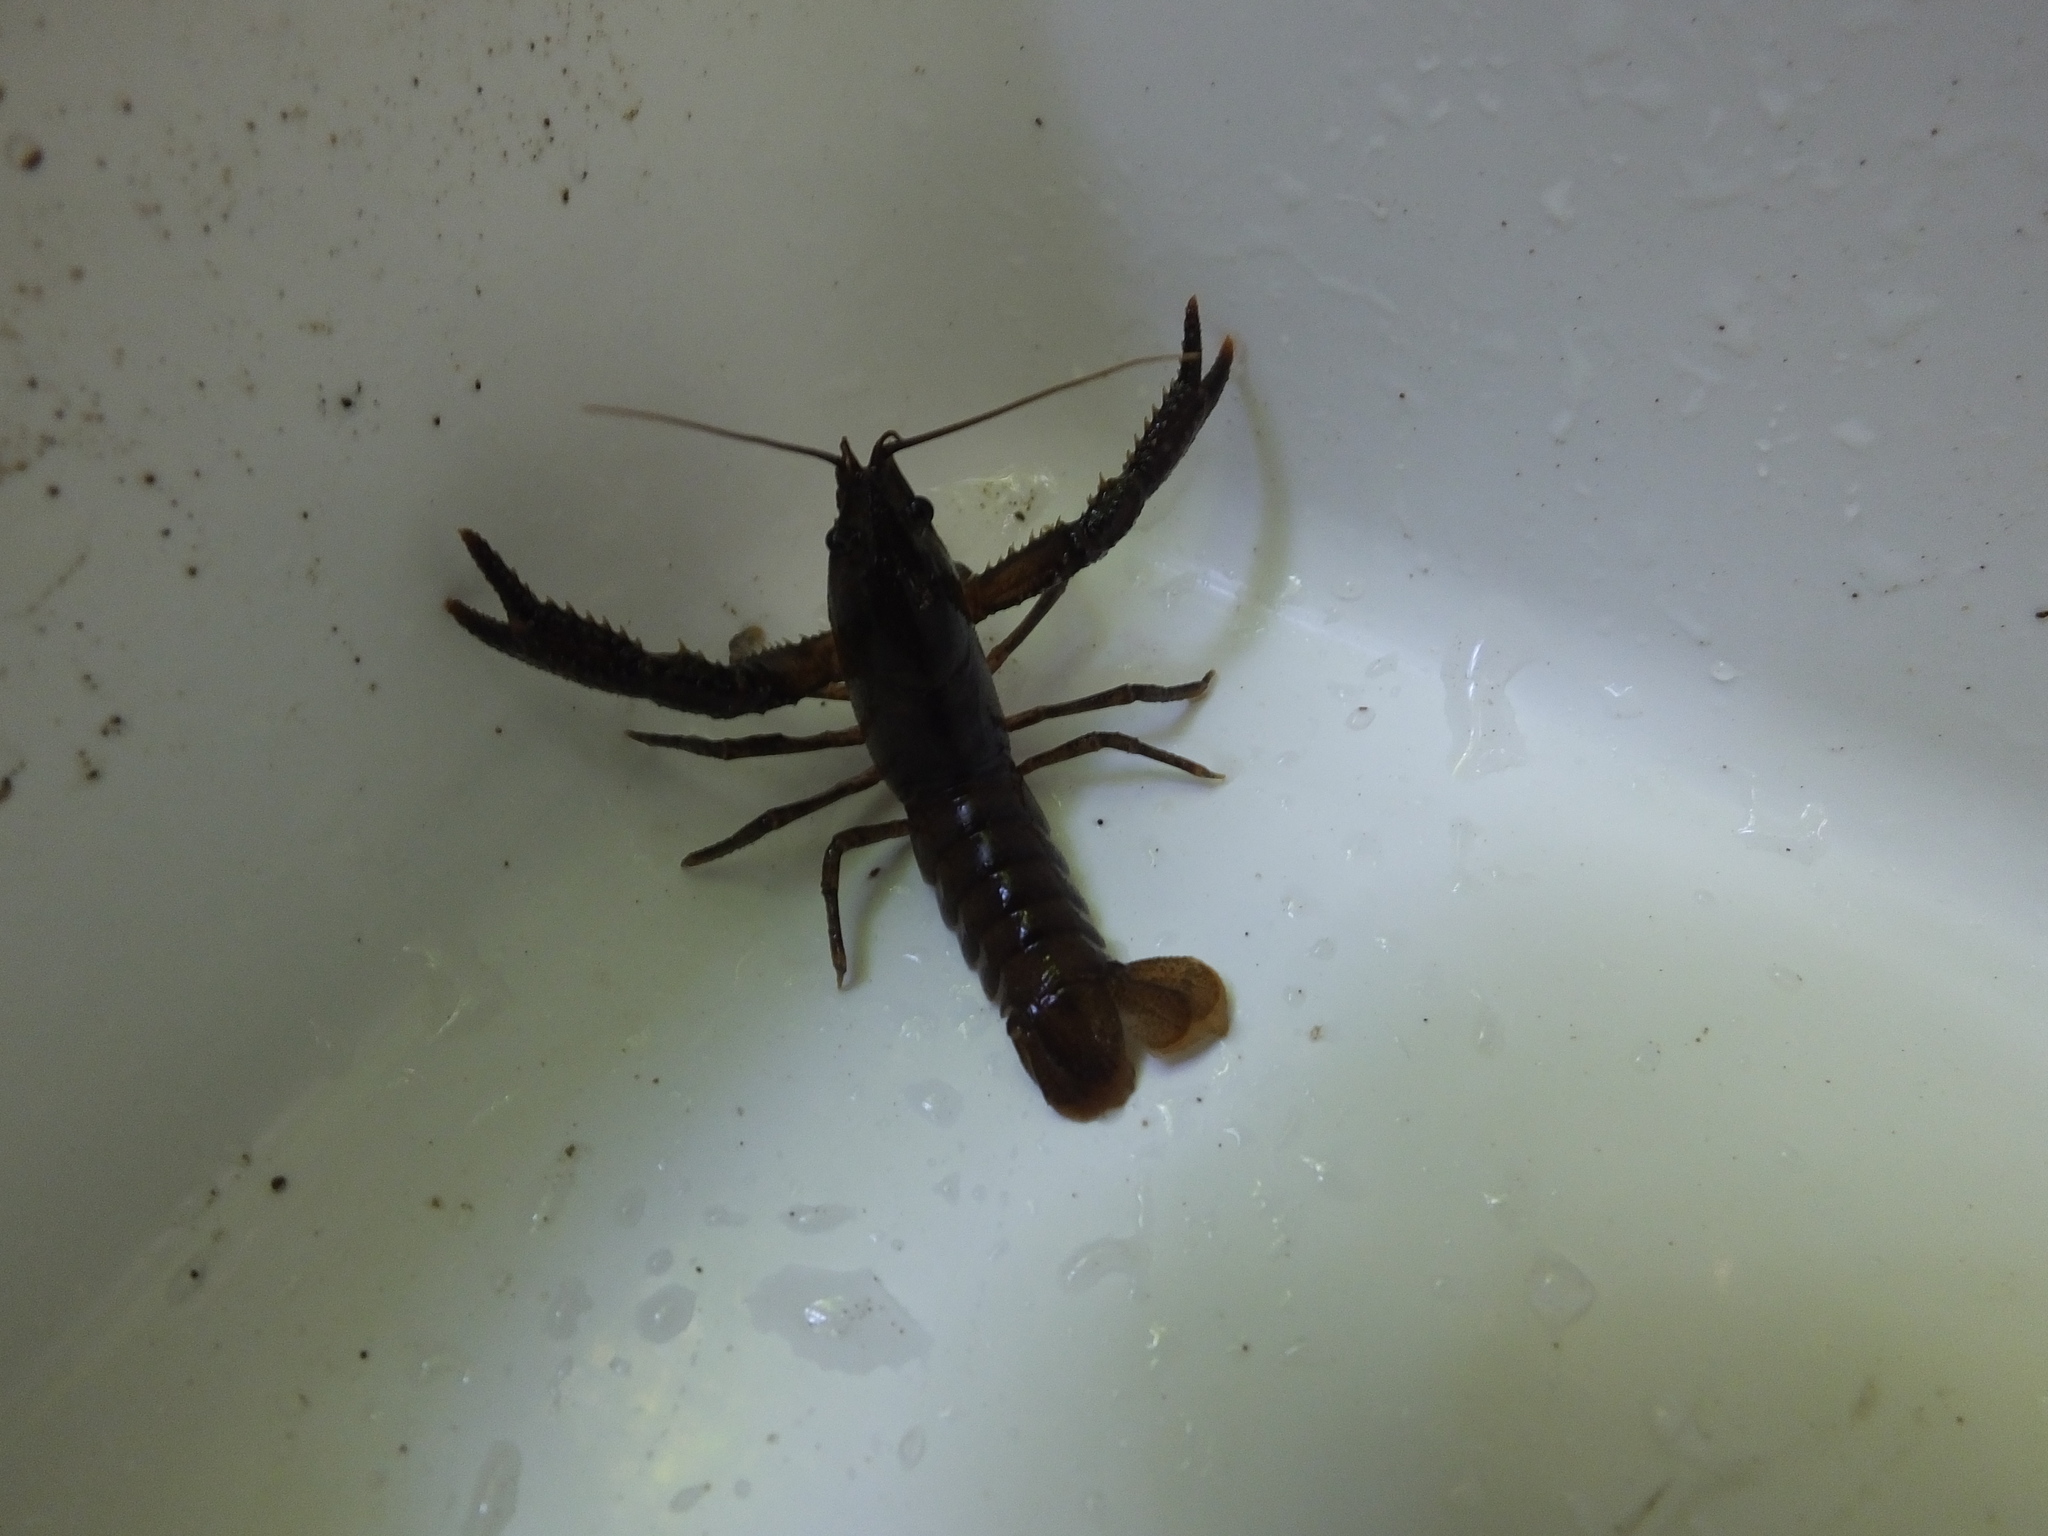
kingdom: Animalia
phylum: Arthropoda
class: Malacostraca
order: Decapoda
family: Parastacidae
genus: Paranephrops
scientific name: Paranephrops planifrons
